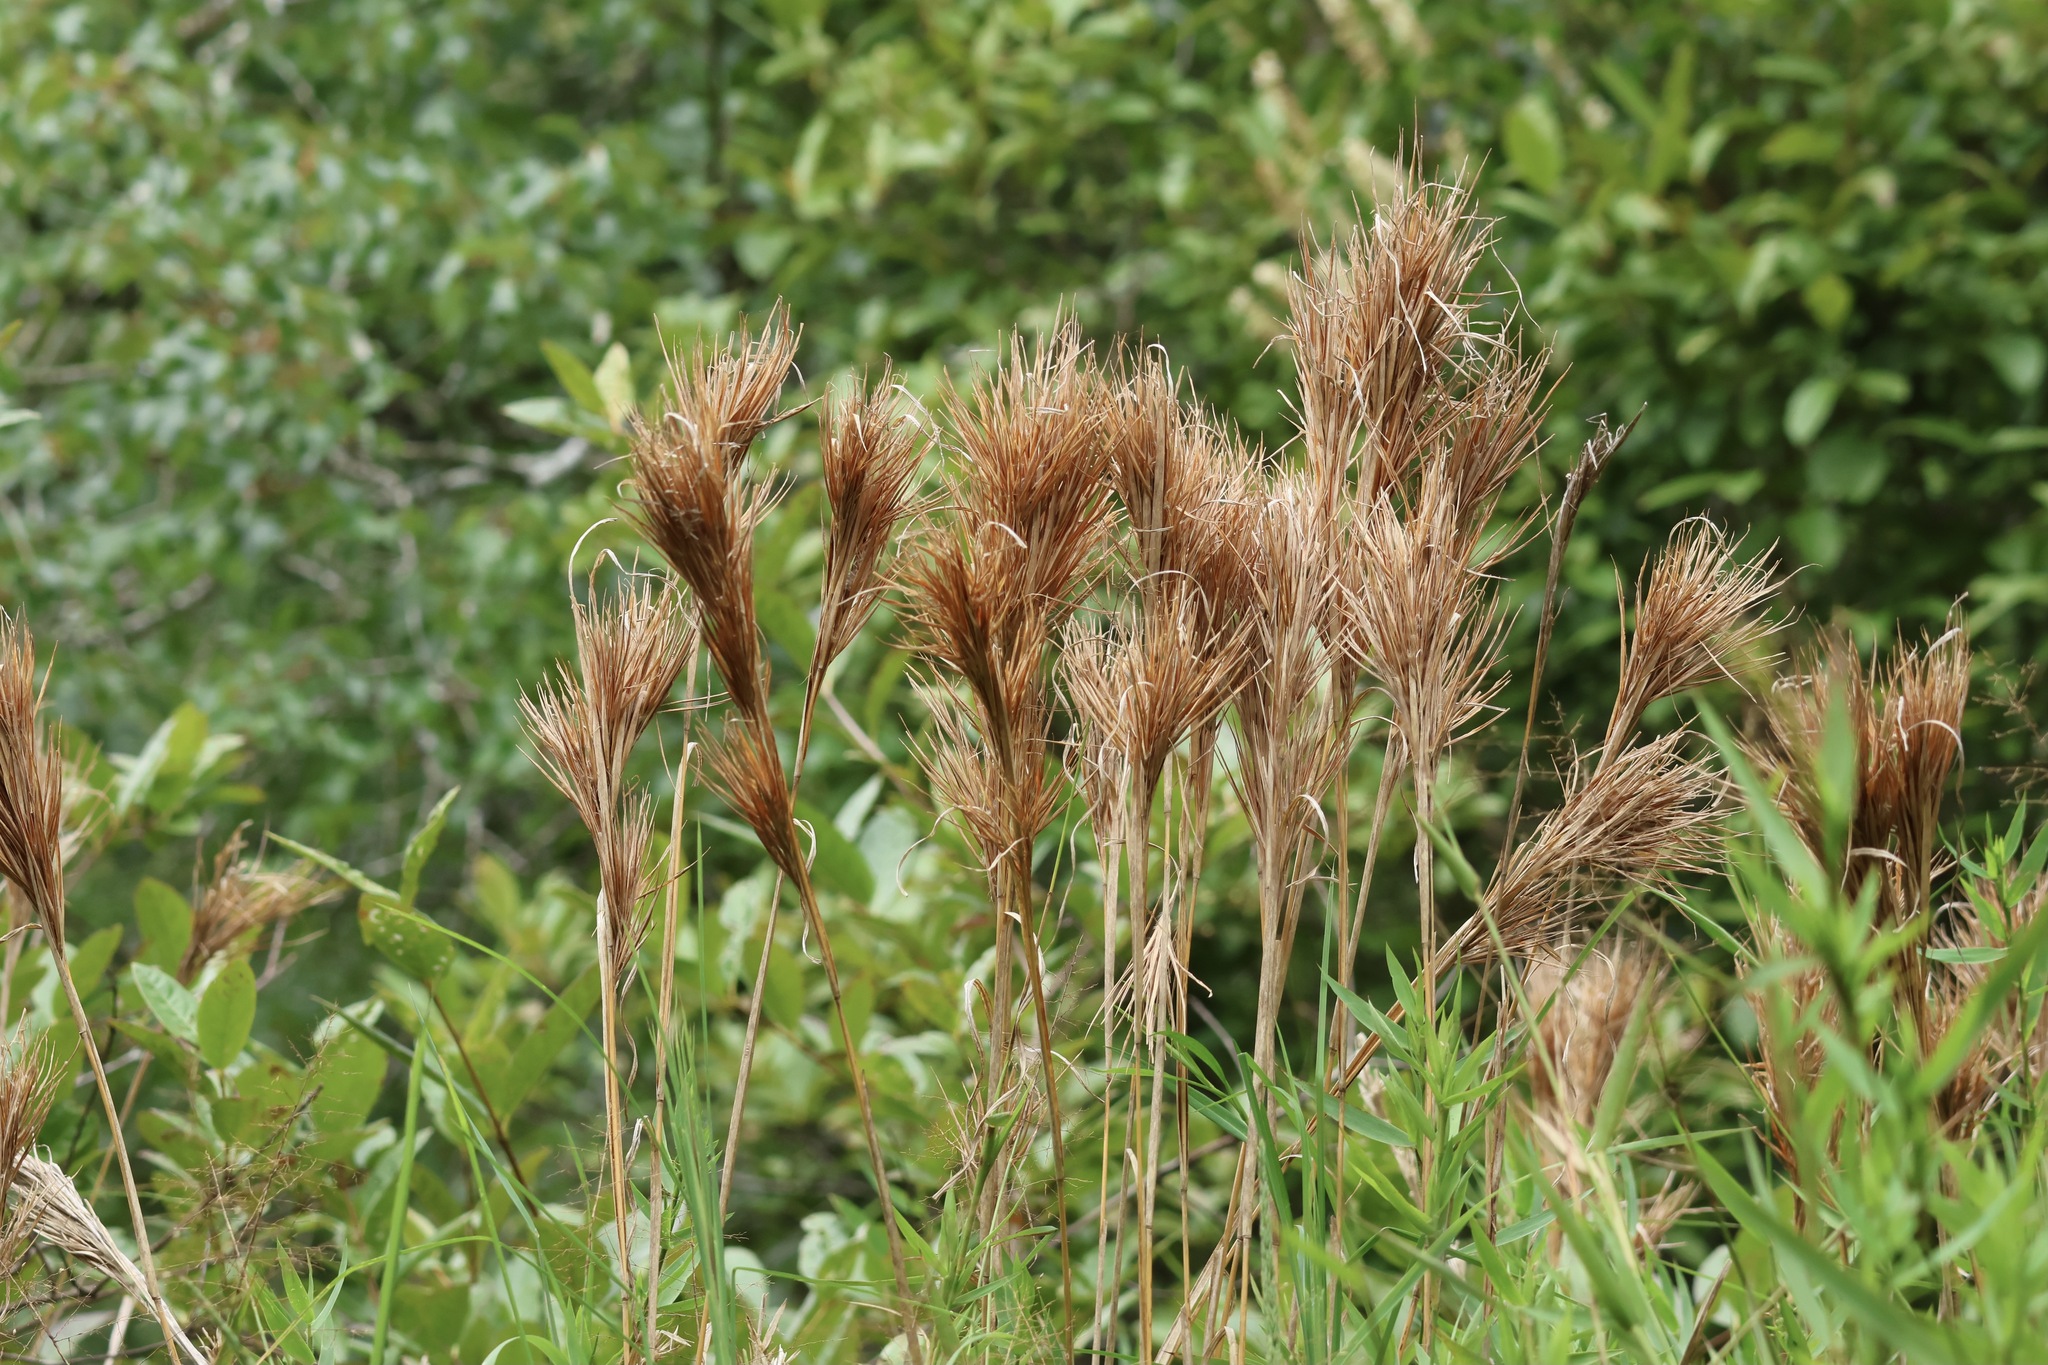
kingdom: Plantae
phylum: Tracheophyta
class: Liliopsida
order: Poales
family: Poaceae
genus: Andropogon
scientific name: Andropogon glomeratus
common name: Bushy beard grass
